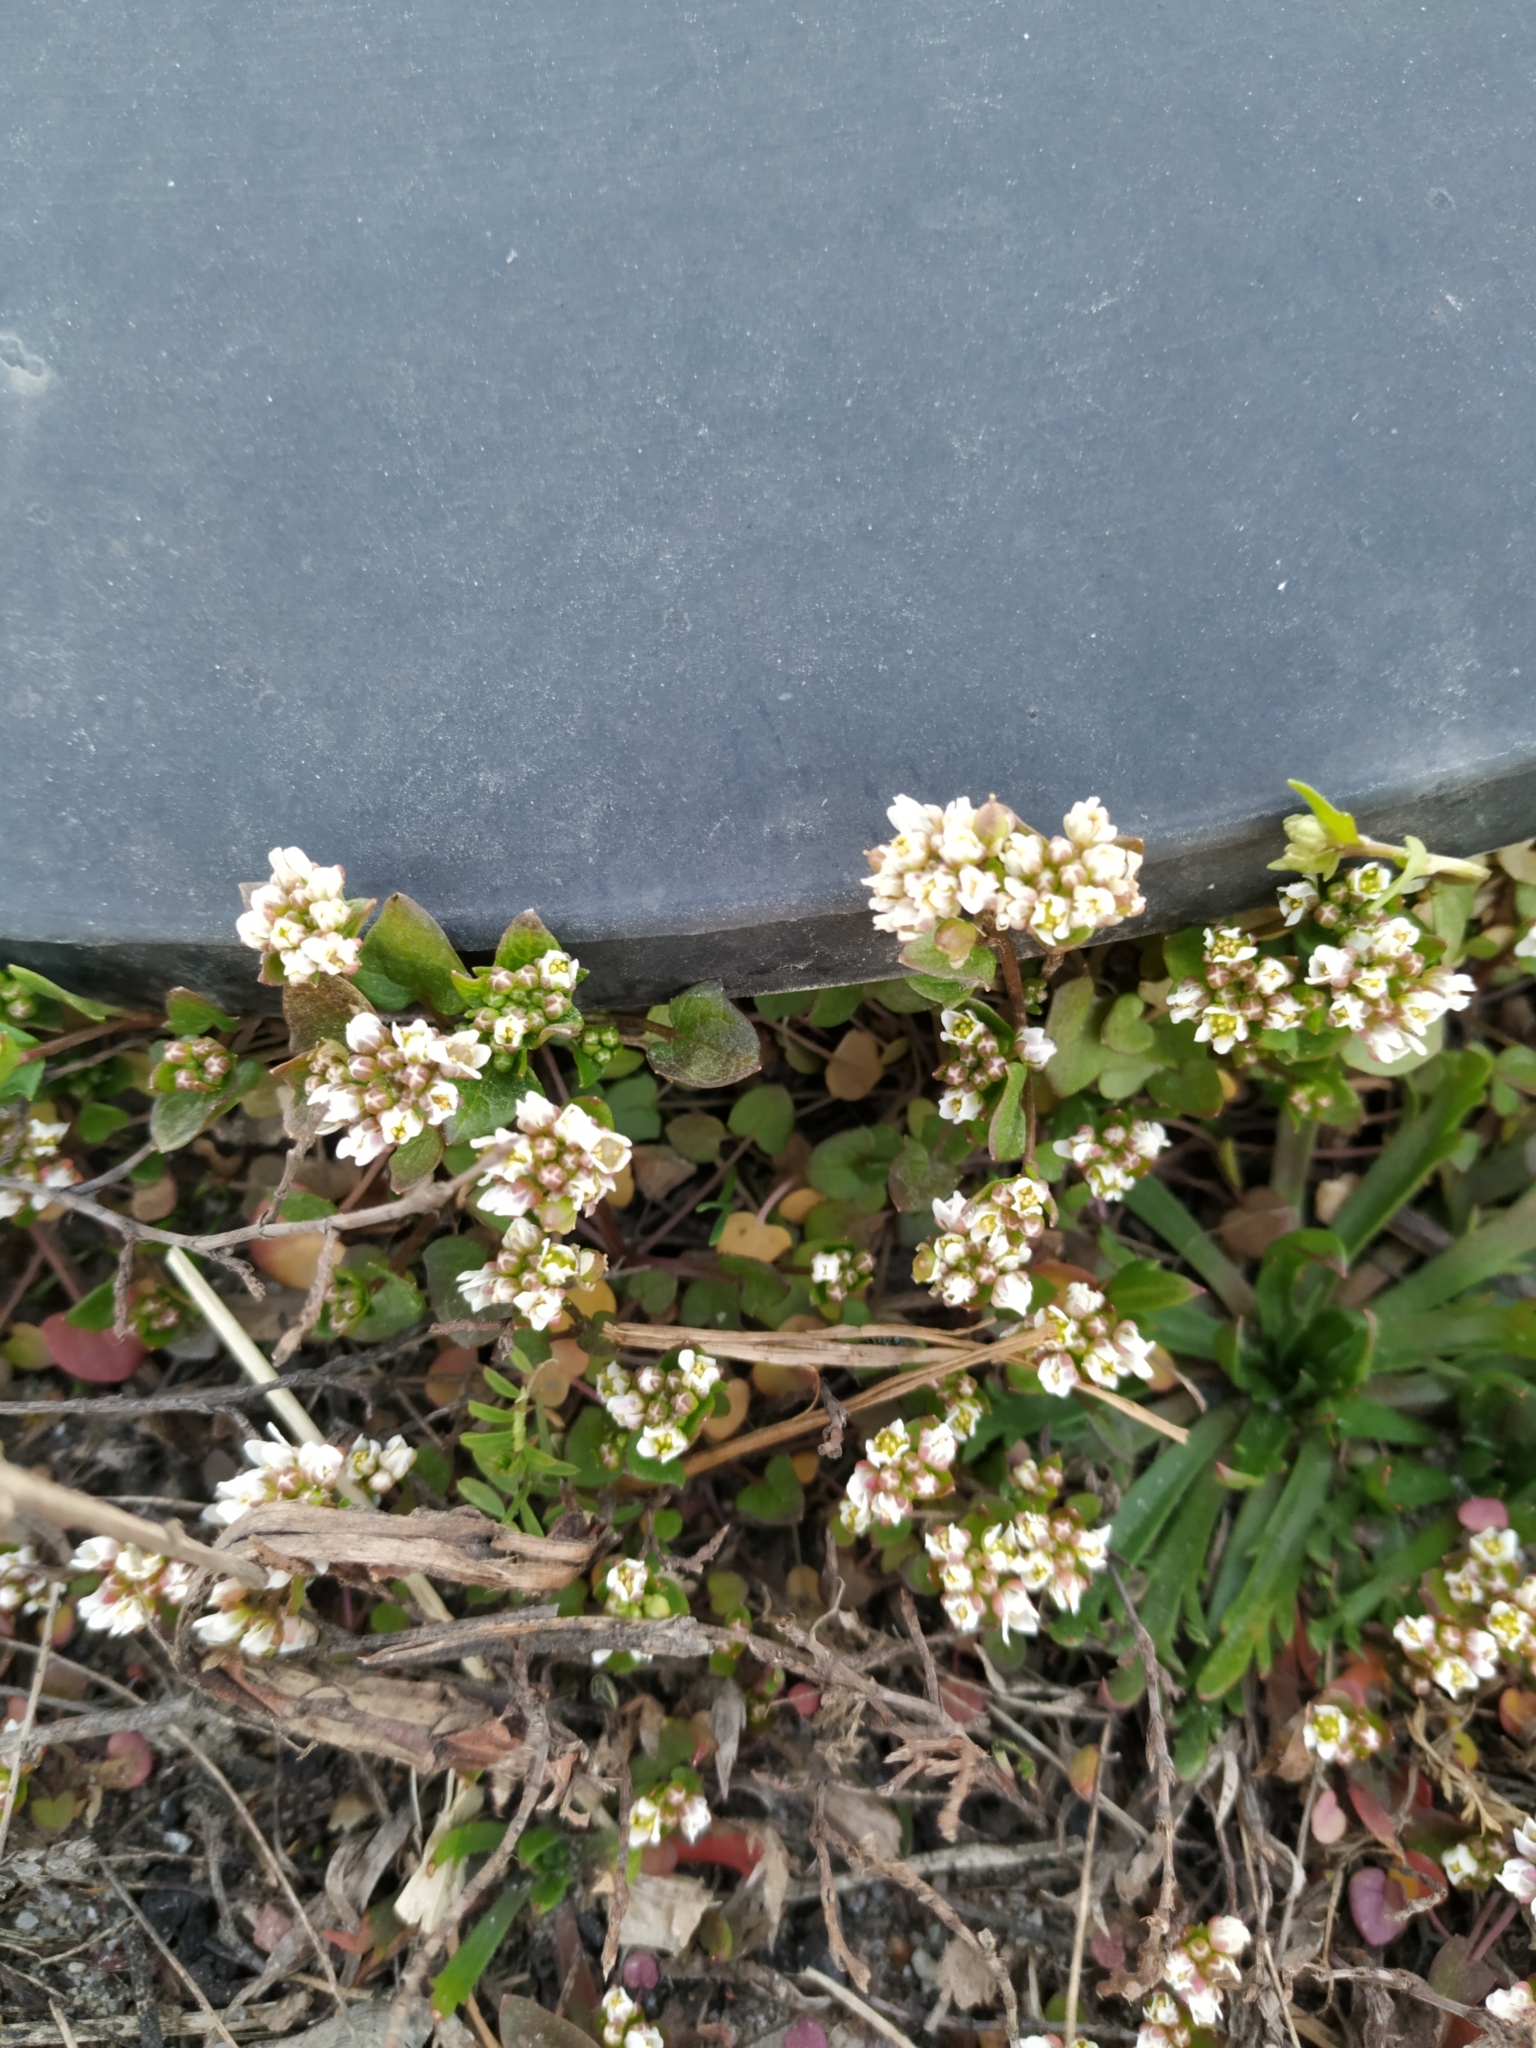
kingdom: Plantae
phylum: Tracheophyta
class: Magnoliopsida
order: Brassicales
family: Brassicaceae
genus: Cochlearia
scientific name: Cochlearia danica
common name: Early scurvygrass
